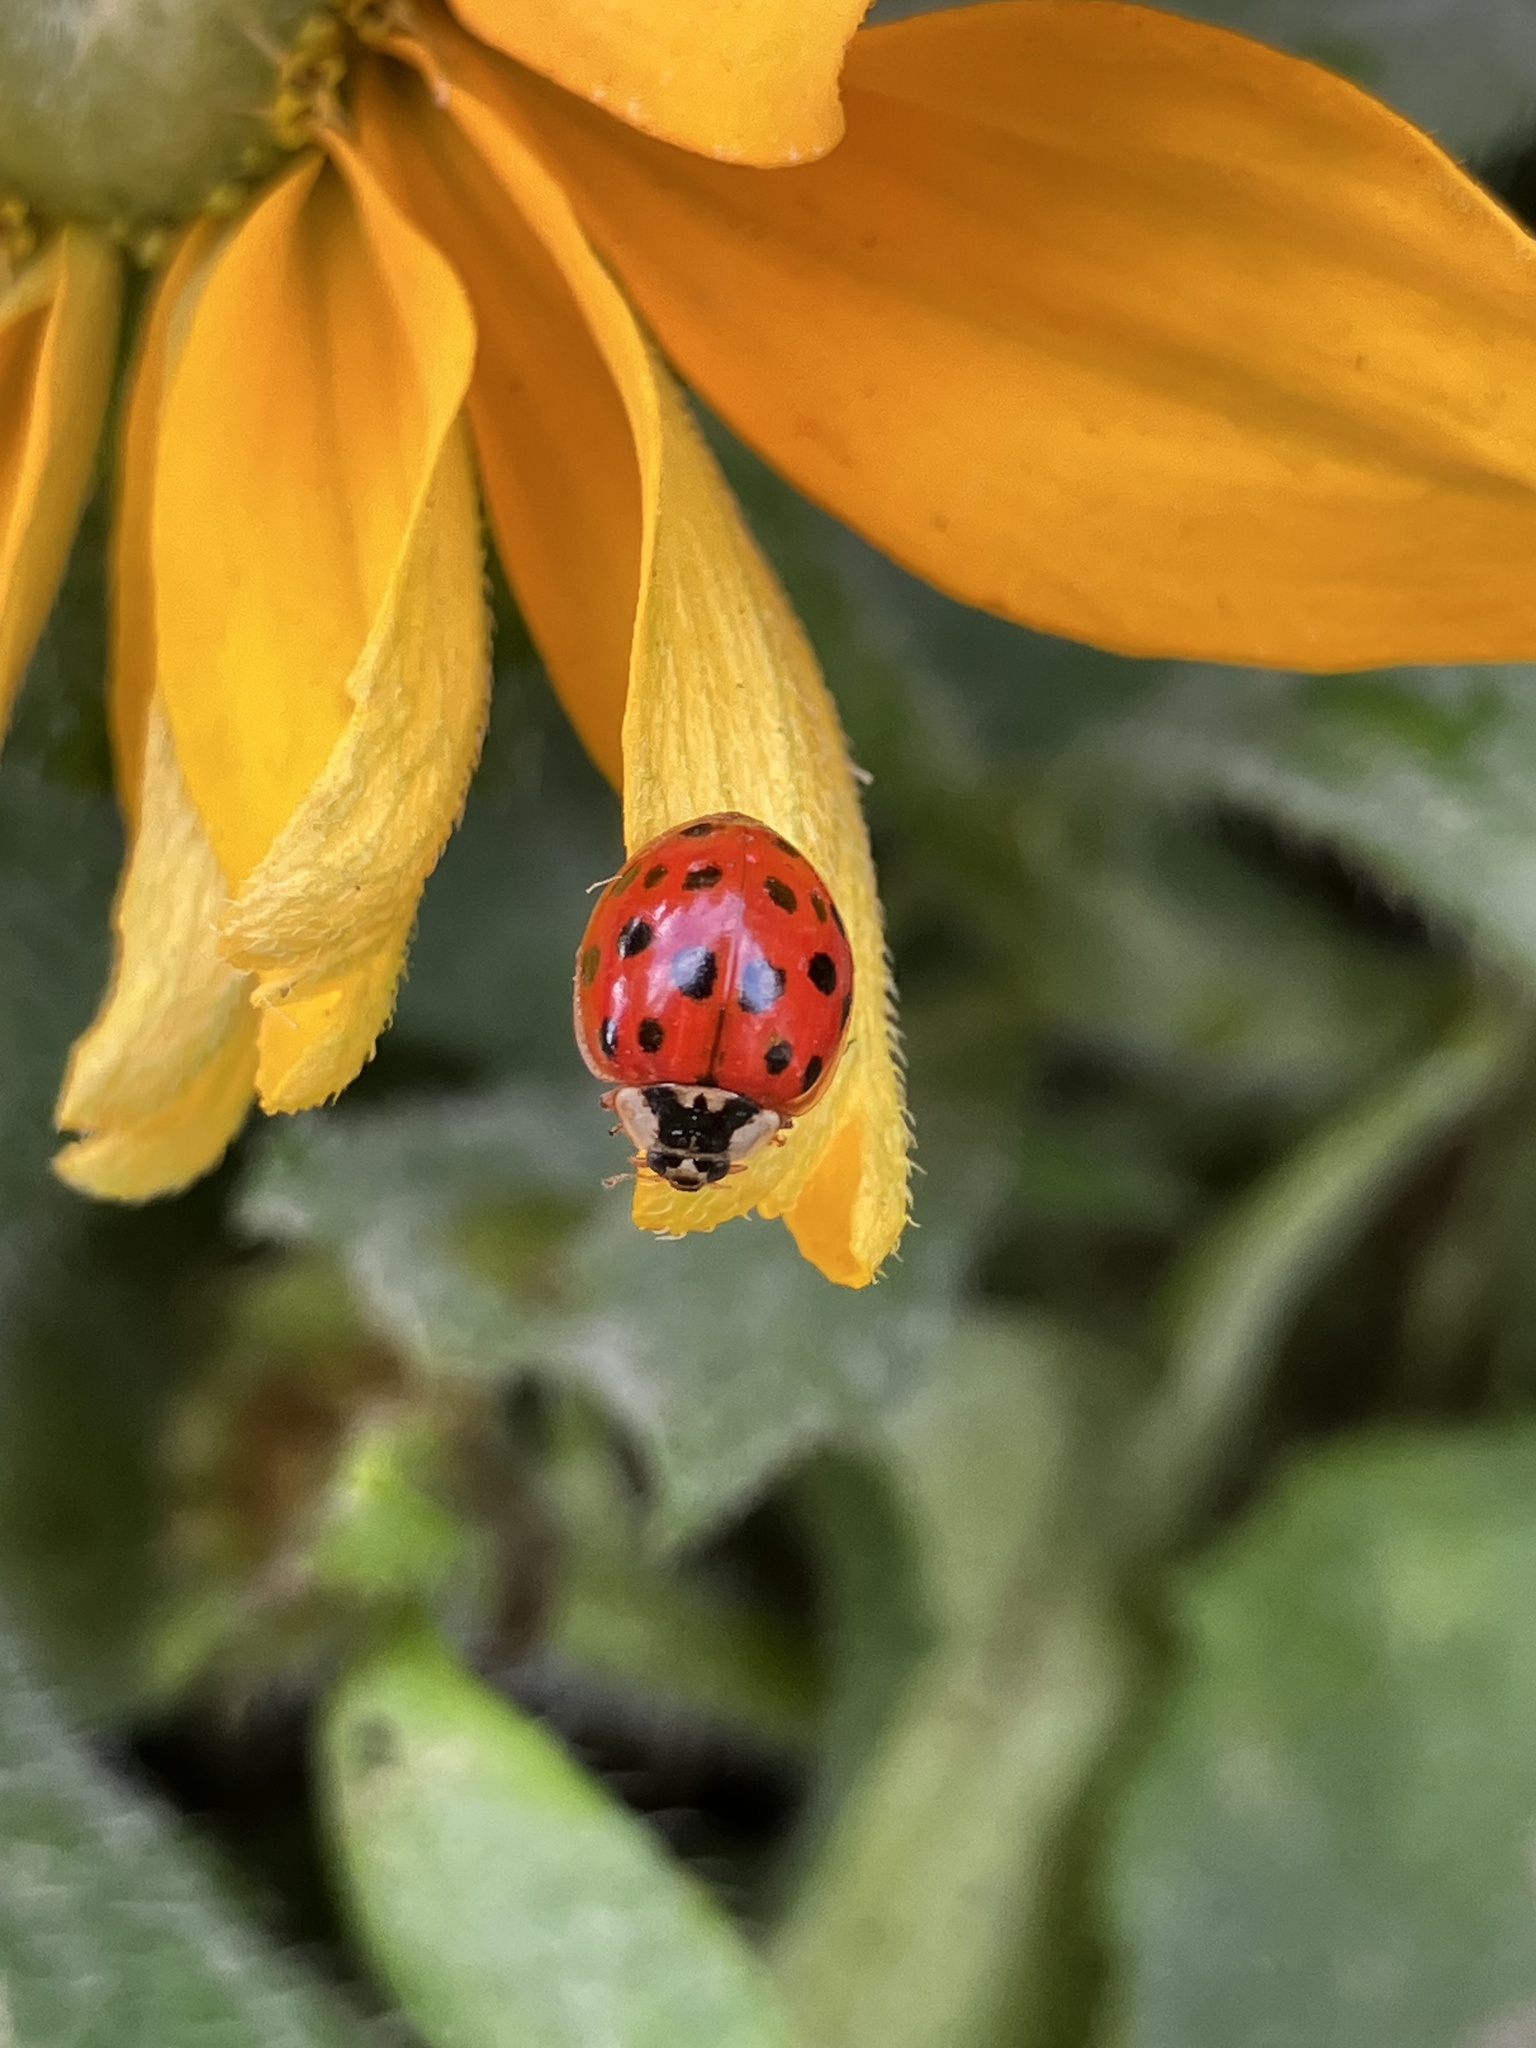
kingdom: Animalia
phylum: Arthropoda
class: Insecta
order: Coleoptera
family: Coccinellidae
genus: Harmonia
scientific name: Harmonia axyridis
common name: Harlequin ladybird
